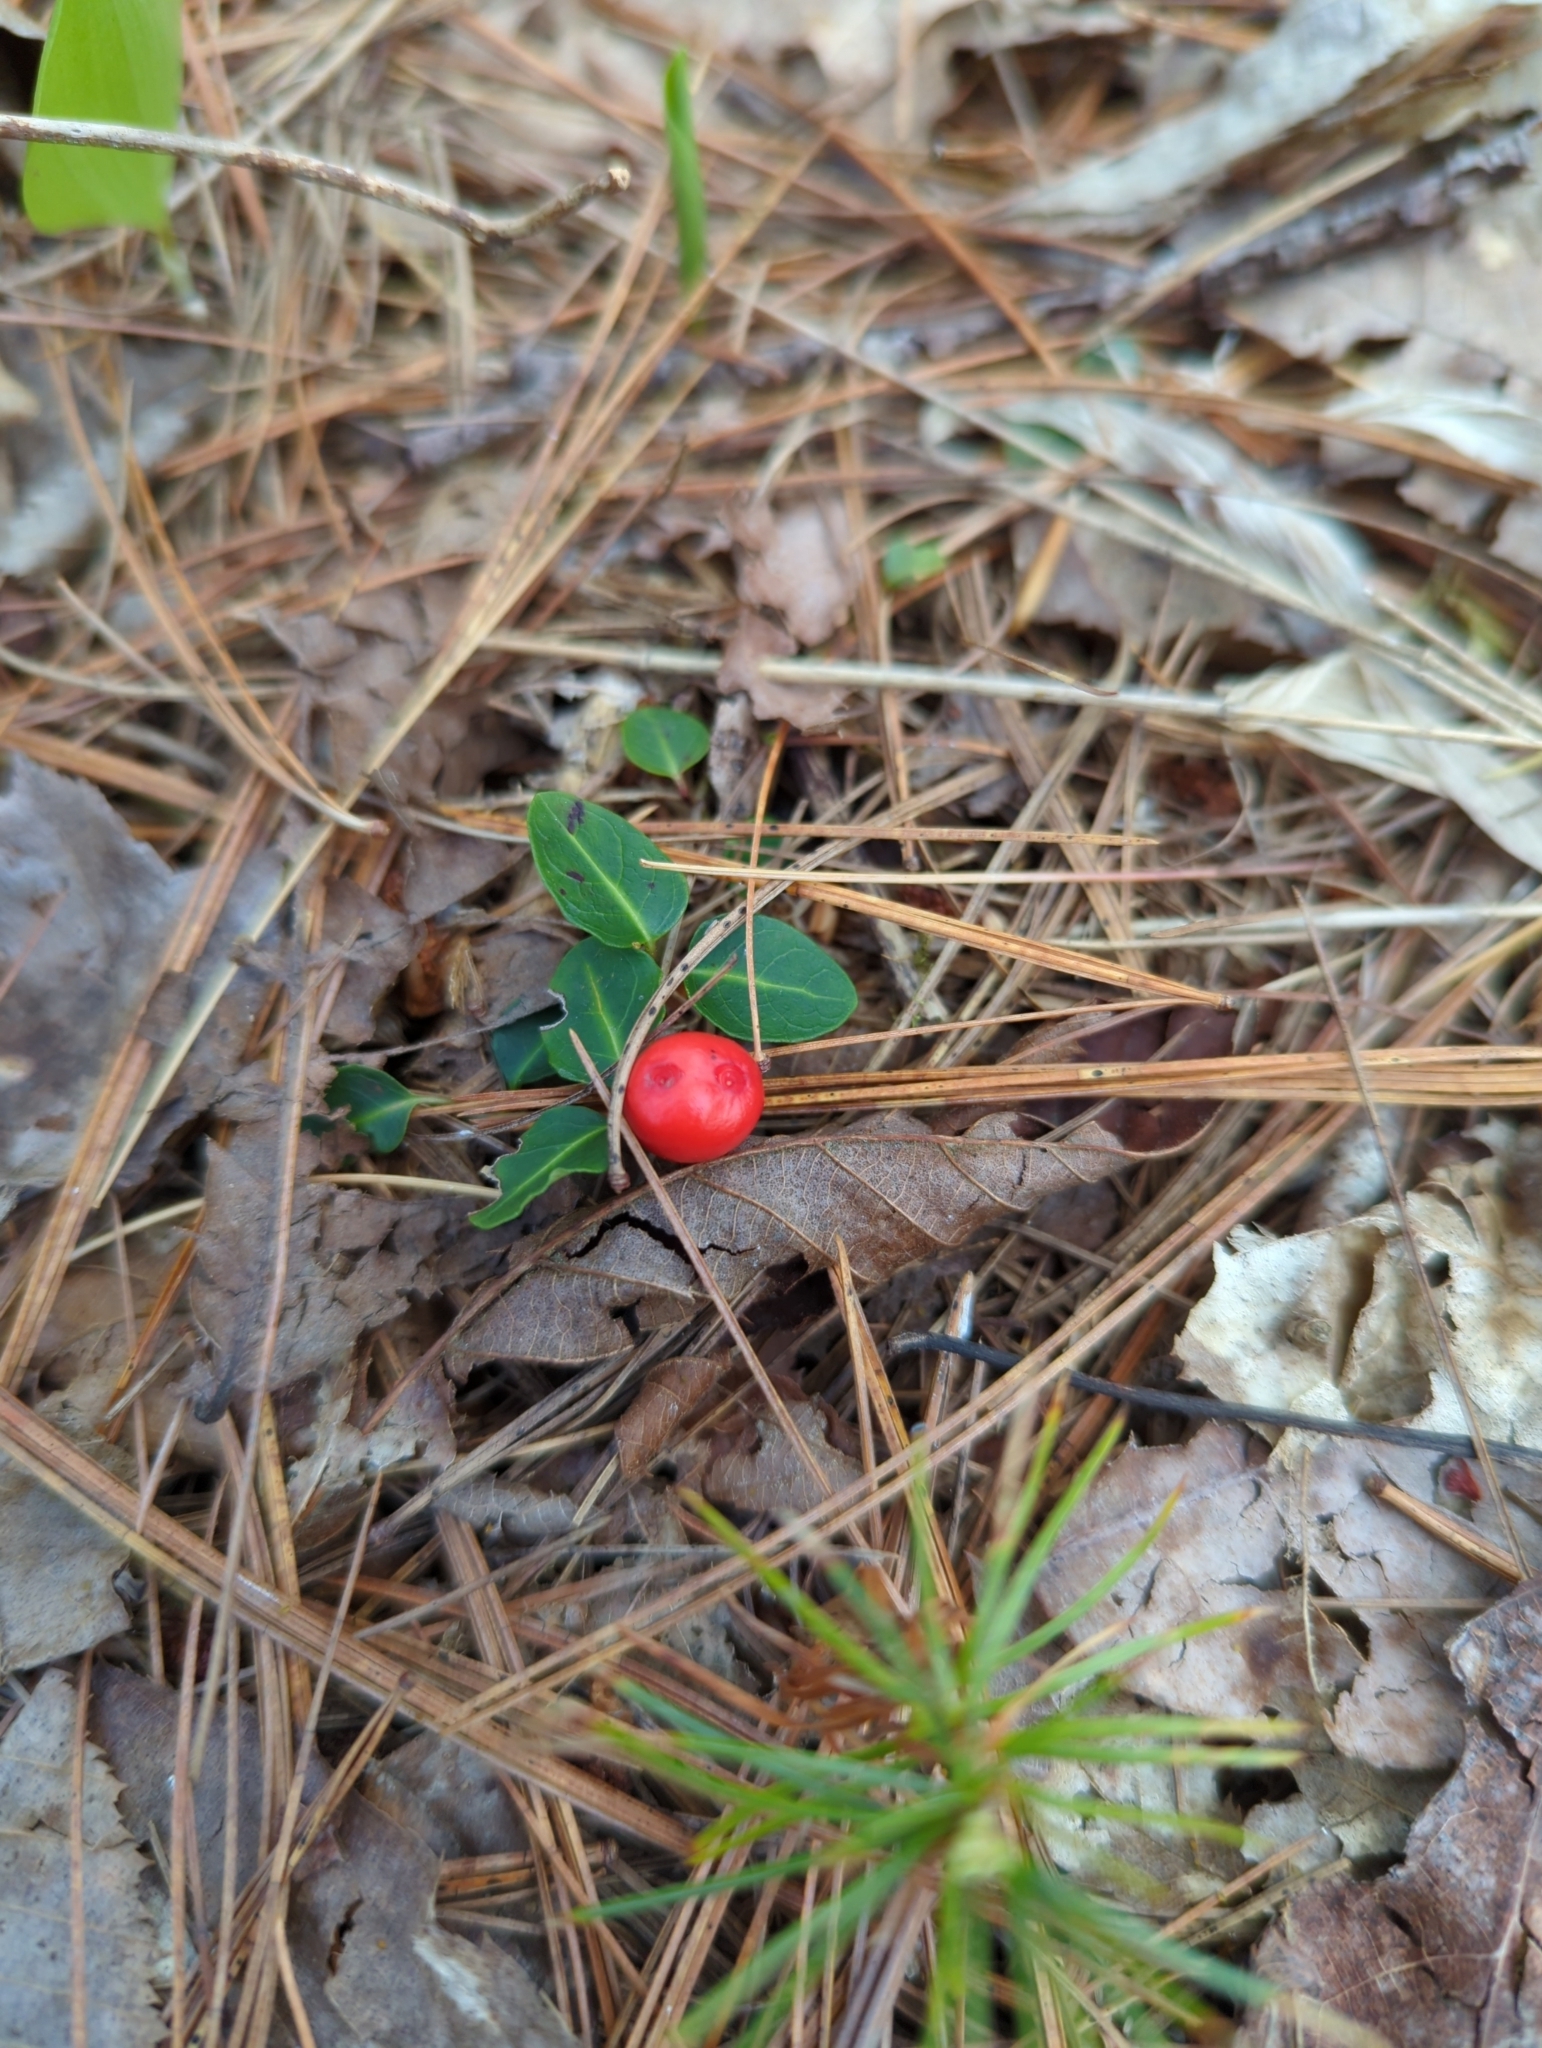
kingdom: Plantae
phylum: Tracheophyta
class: Magnoliopsida
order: Gentianales
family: Rubiaceae
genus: Mitchella
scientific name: Mitchella repens
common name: Partridge-berry
